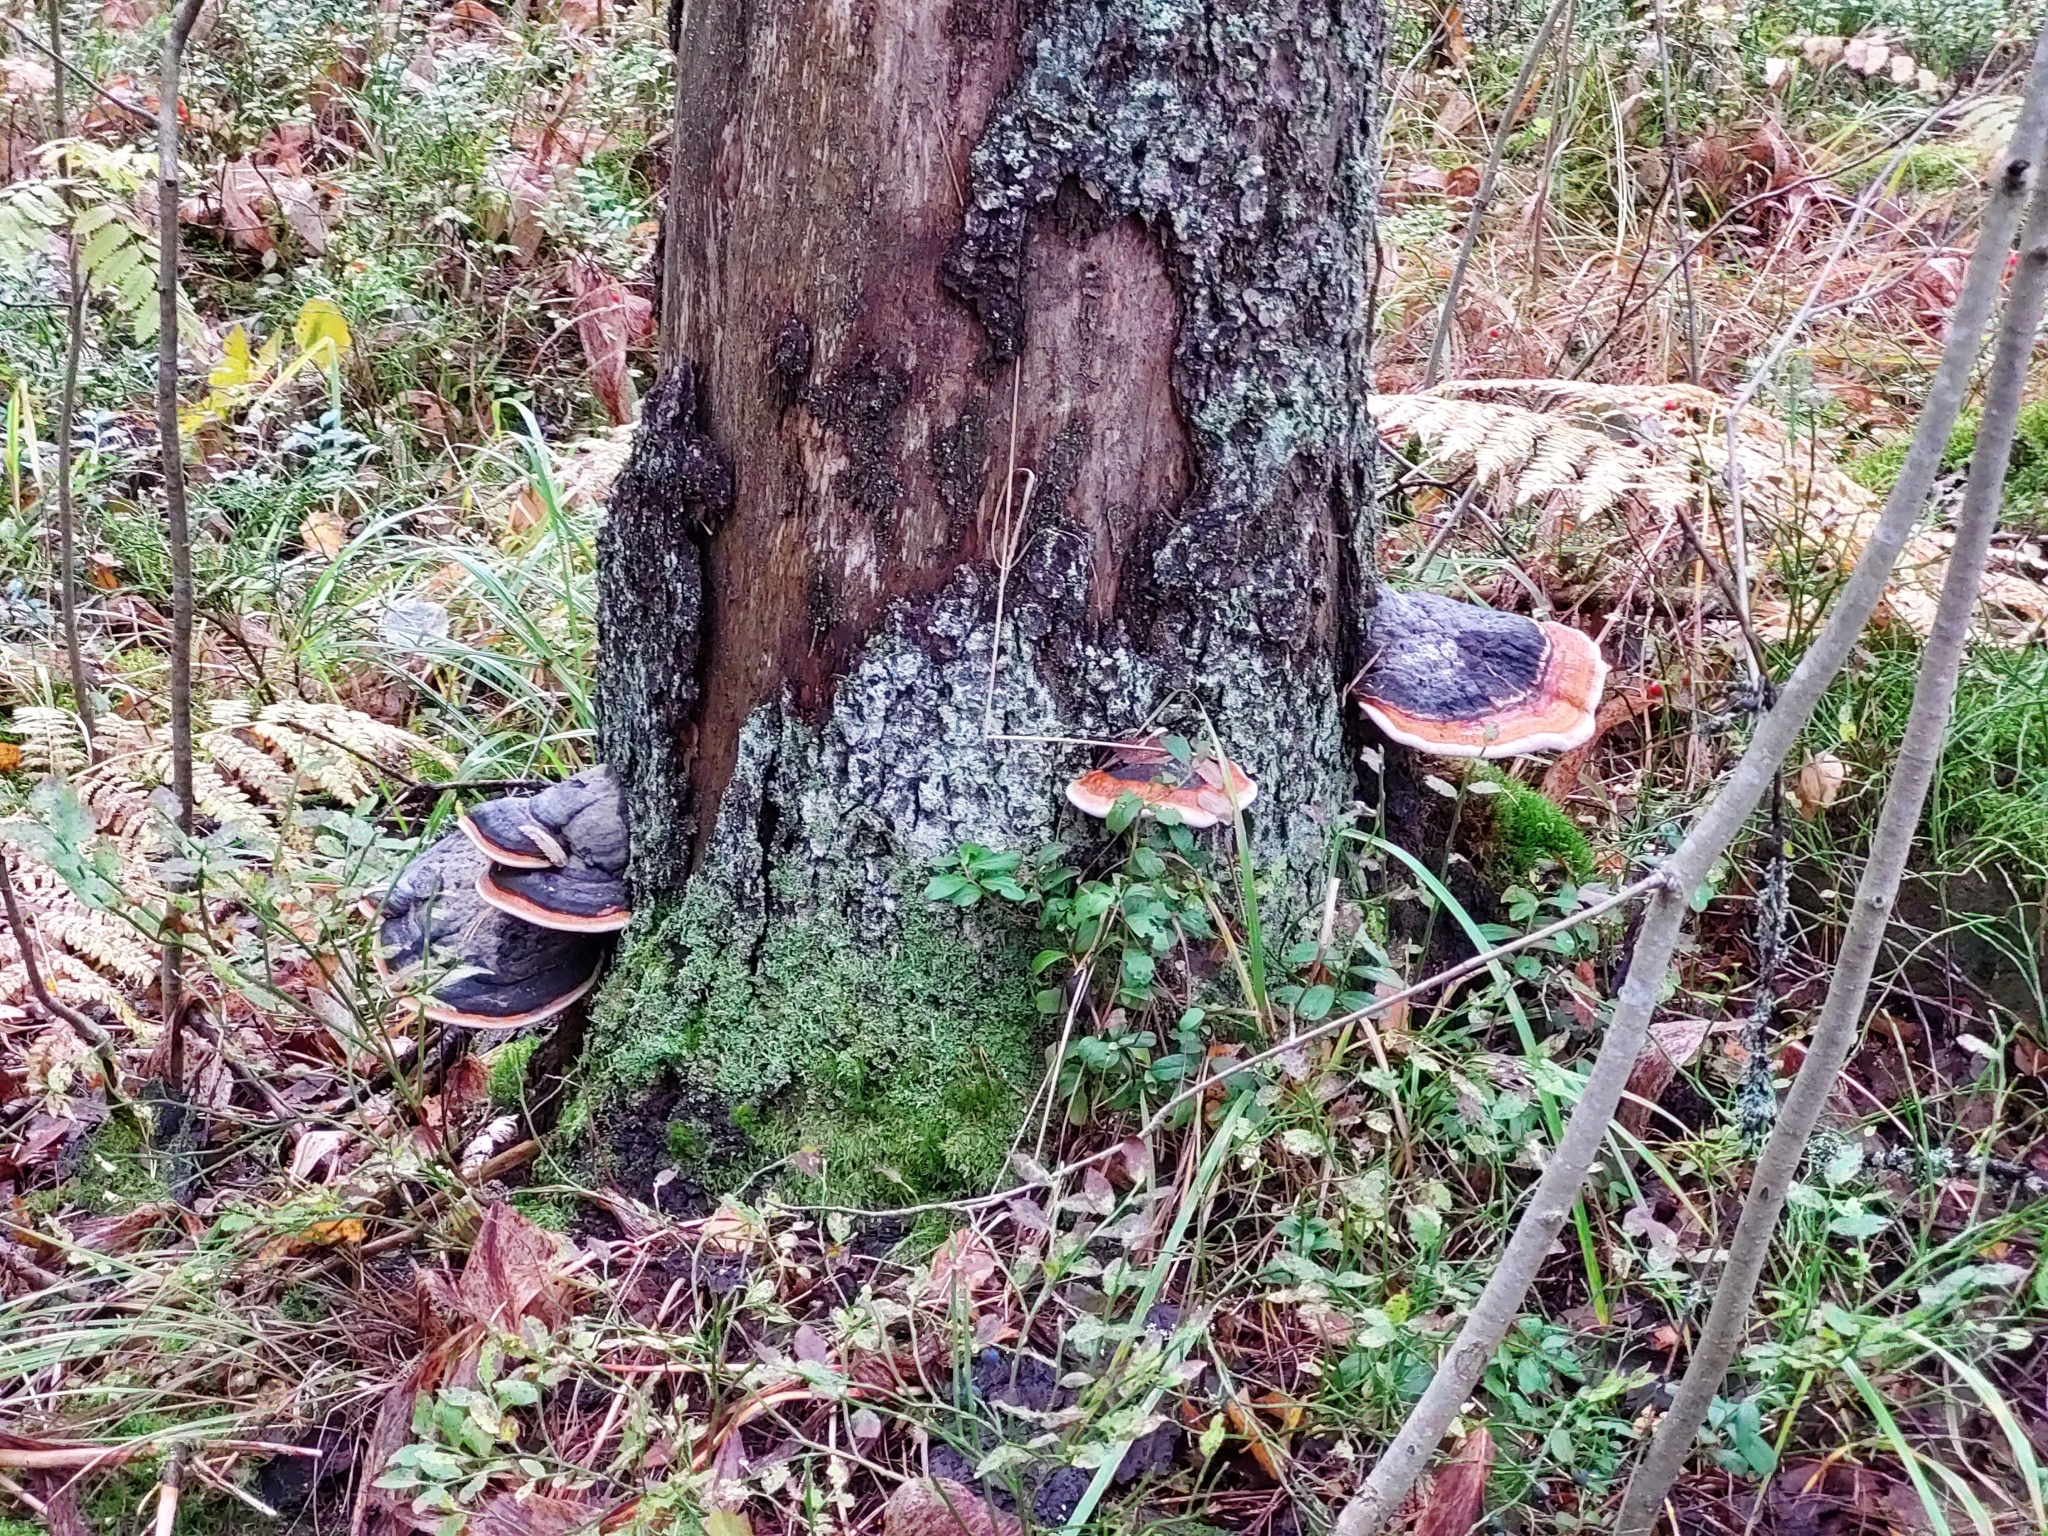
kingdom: Fungi
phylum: Basidiomycota
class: Agaricomycetes
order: Polyporales
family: Fomitopsidaceae
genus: Fomitopsis
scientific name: Fomitopsis pinicola
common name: Red-belted bracket
